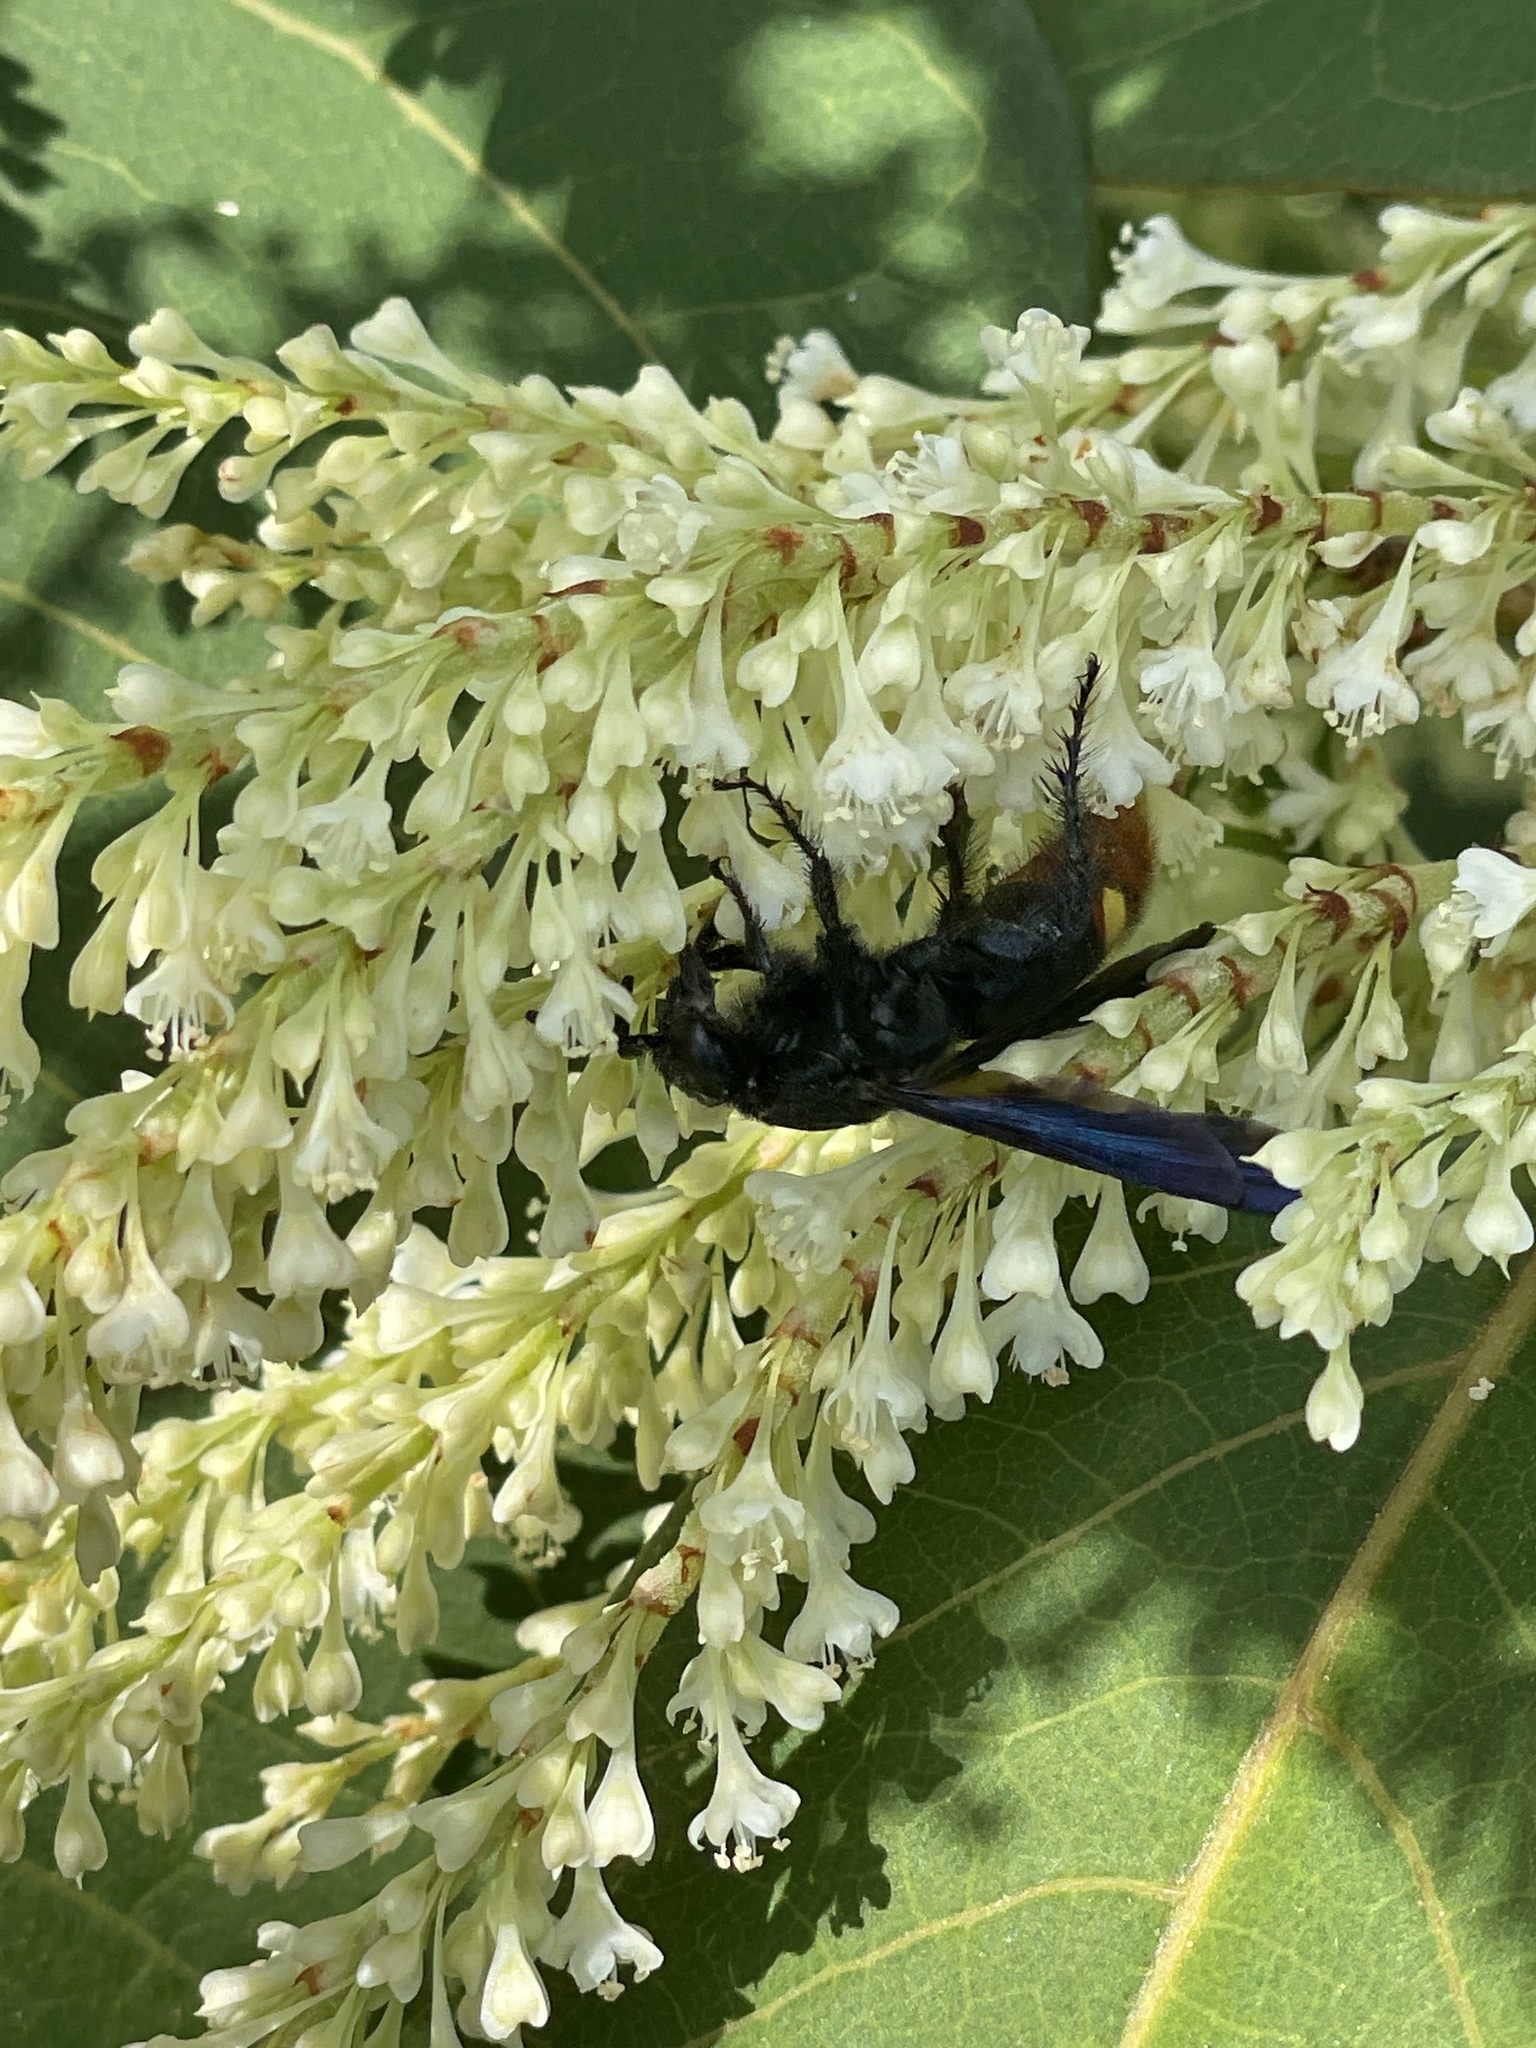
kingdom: Animalia
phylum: Arthropoda
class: Insecta
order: Hymenoptera
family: Scoliidae
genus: Scolia
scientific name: Scolia dubia
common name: Blue-winged scoliid wasp
